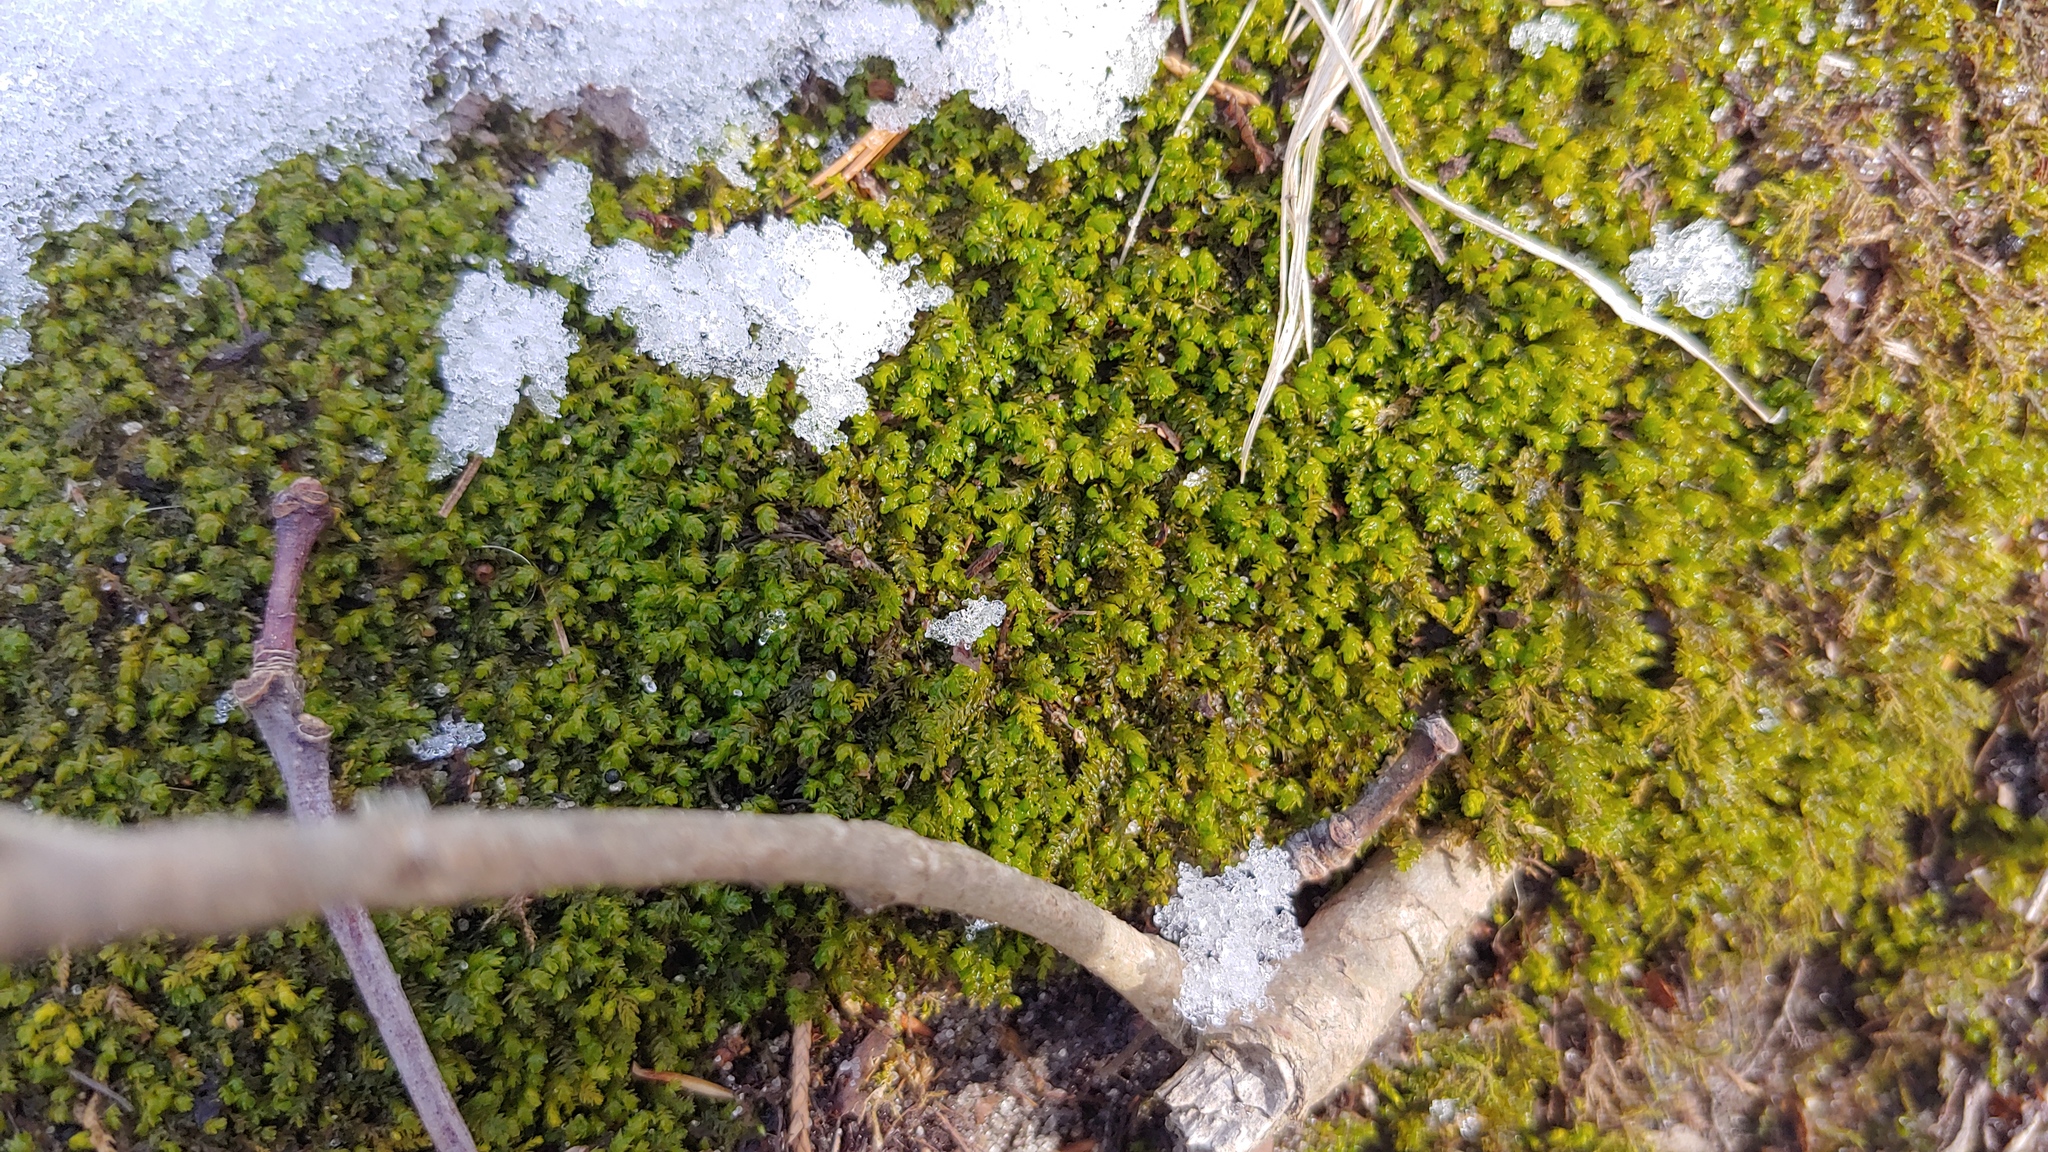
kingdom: Plantae
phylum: Bryophyta
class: Bryopsida
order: Hypnales
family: Neckeraceae
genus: Pseudanomodon
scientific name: Pseudanomodon attenuatus
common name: Tree-skirt moss
